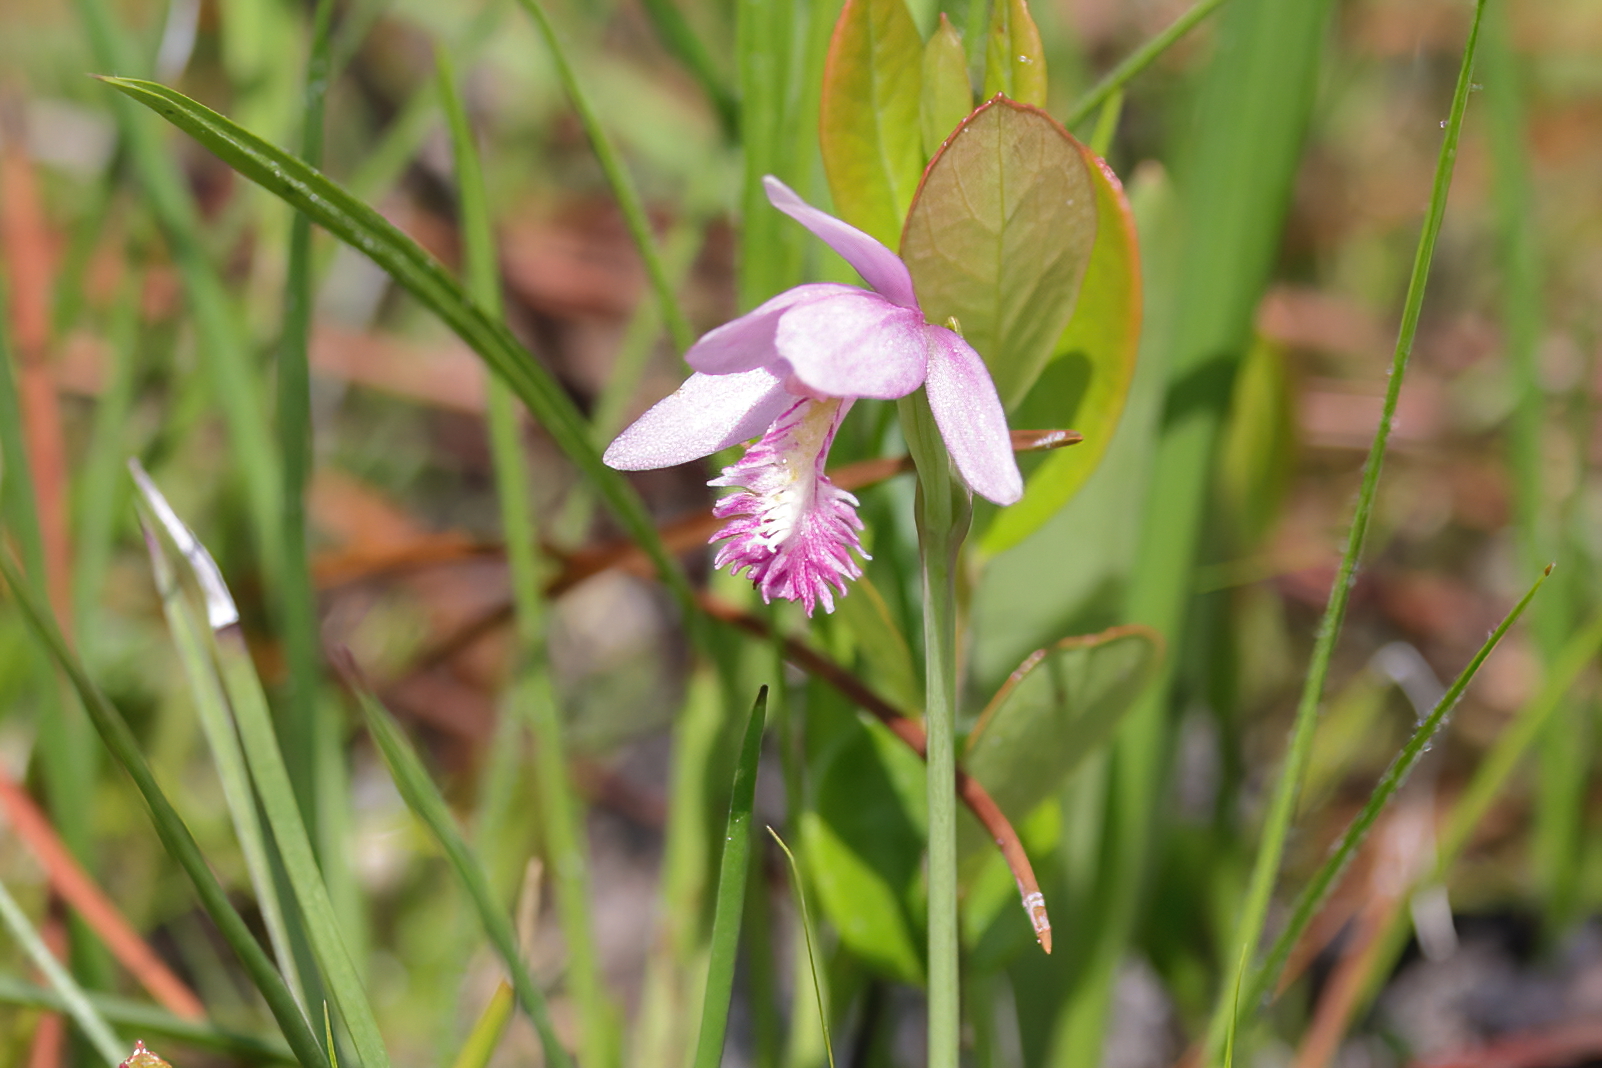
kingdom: Plantae
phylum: Tracheophyta
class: Liliopsida
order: Asparagales
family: Orchidaceae
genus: Pogonia
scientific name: Pogonia ophioglossoides
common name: Rose pogonia
